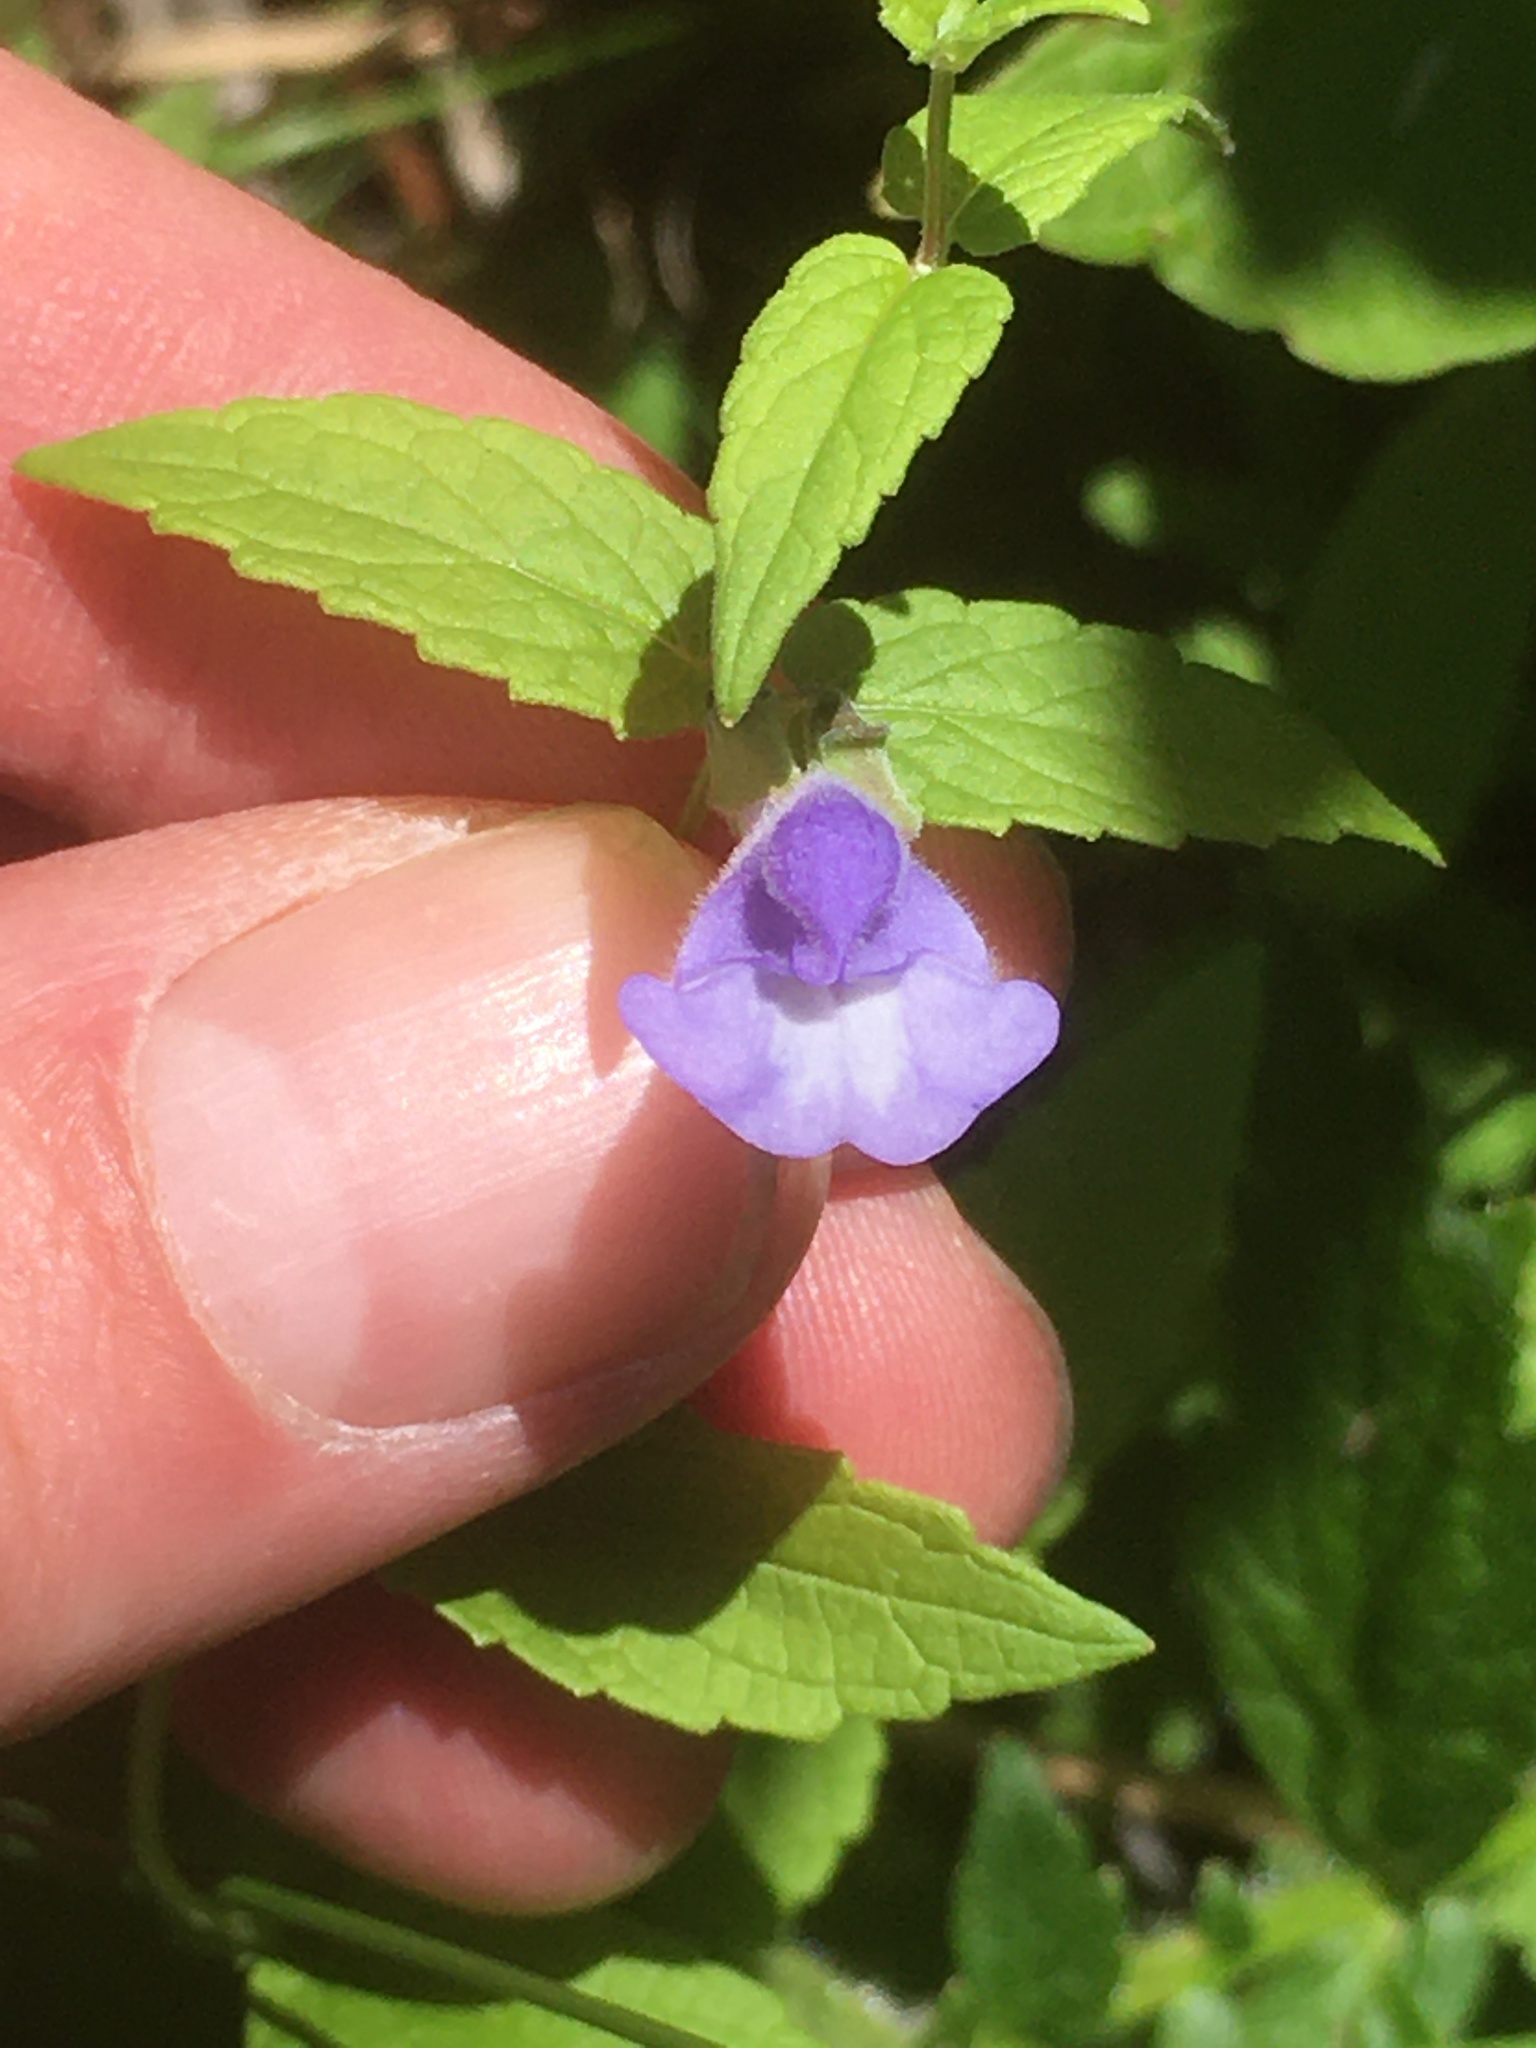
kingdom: Plantae
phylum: Tracheophyta
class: Magnoliopsida
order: Lamiales
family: Lamiaceae
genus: Scutellaria
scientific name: Scutellaria galericulata
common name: Skullcap
